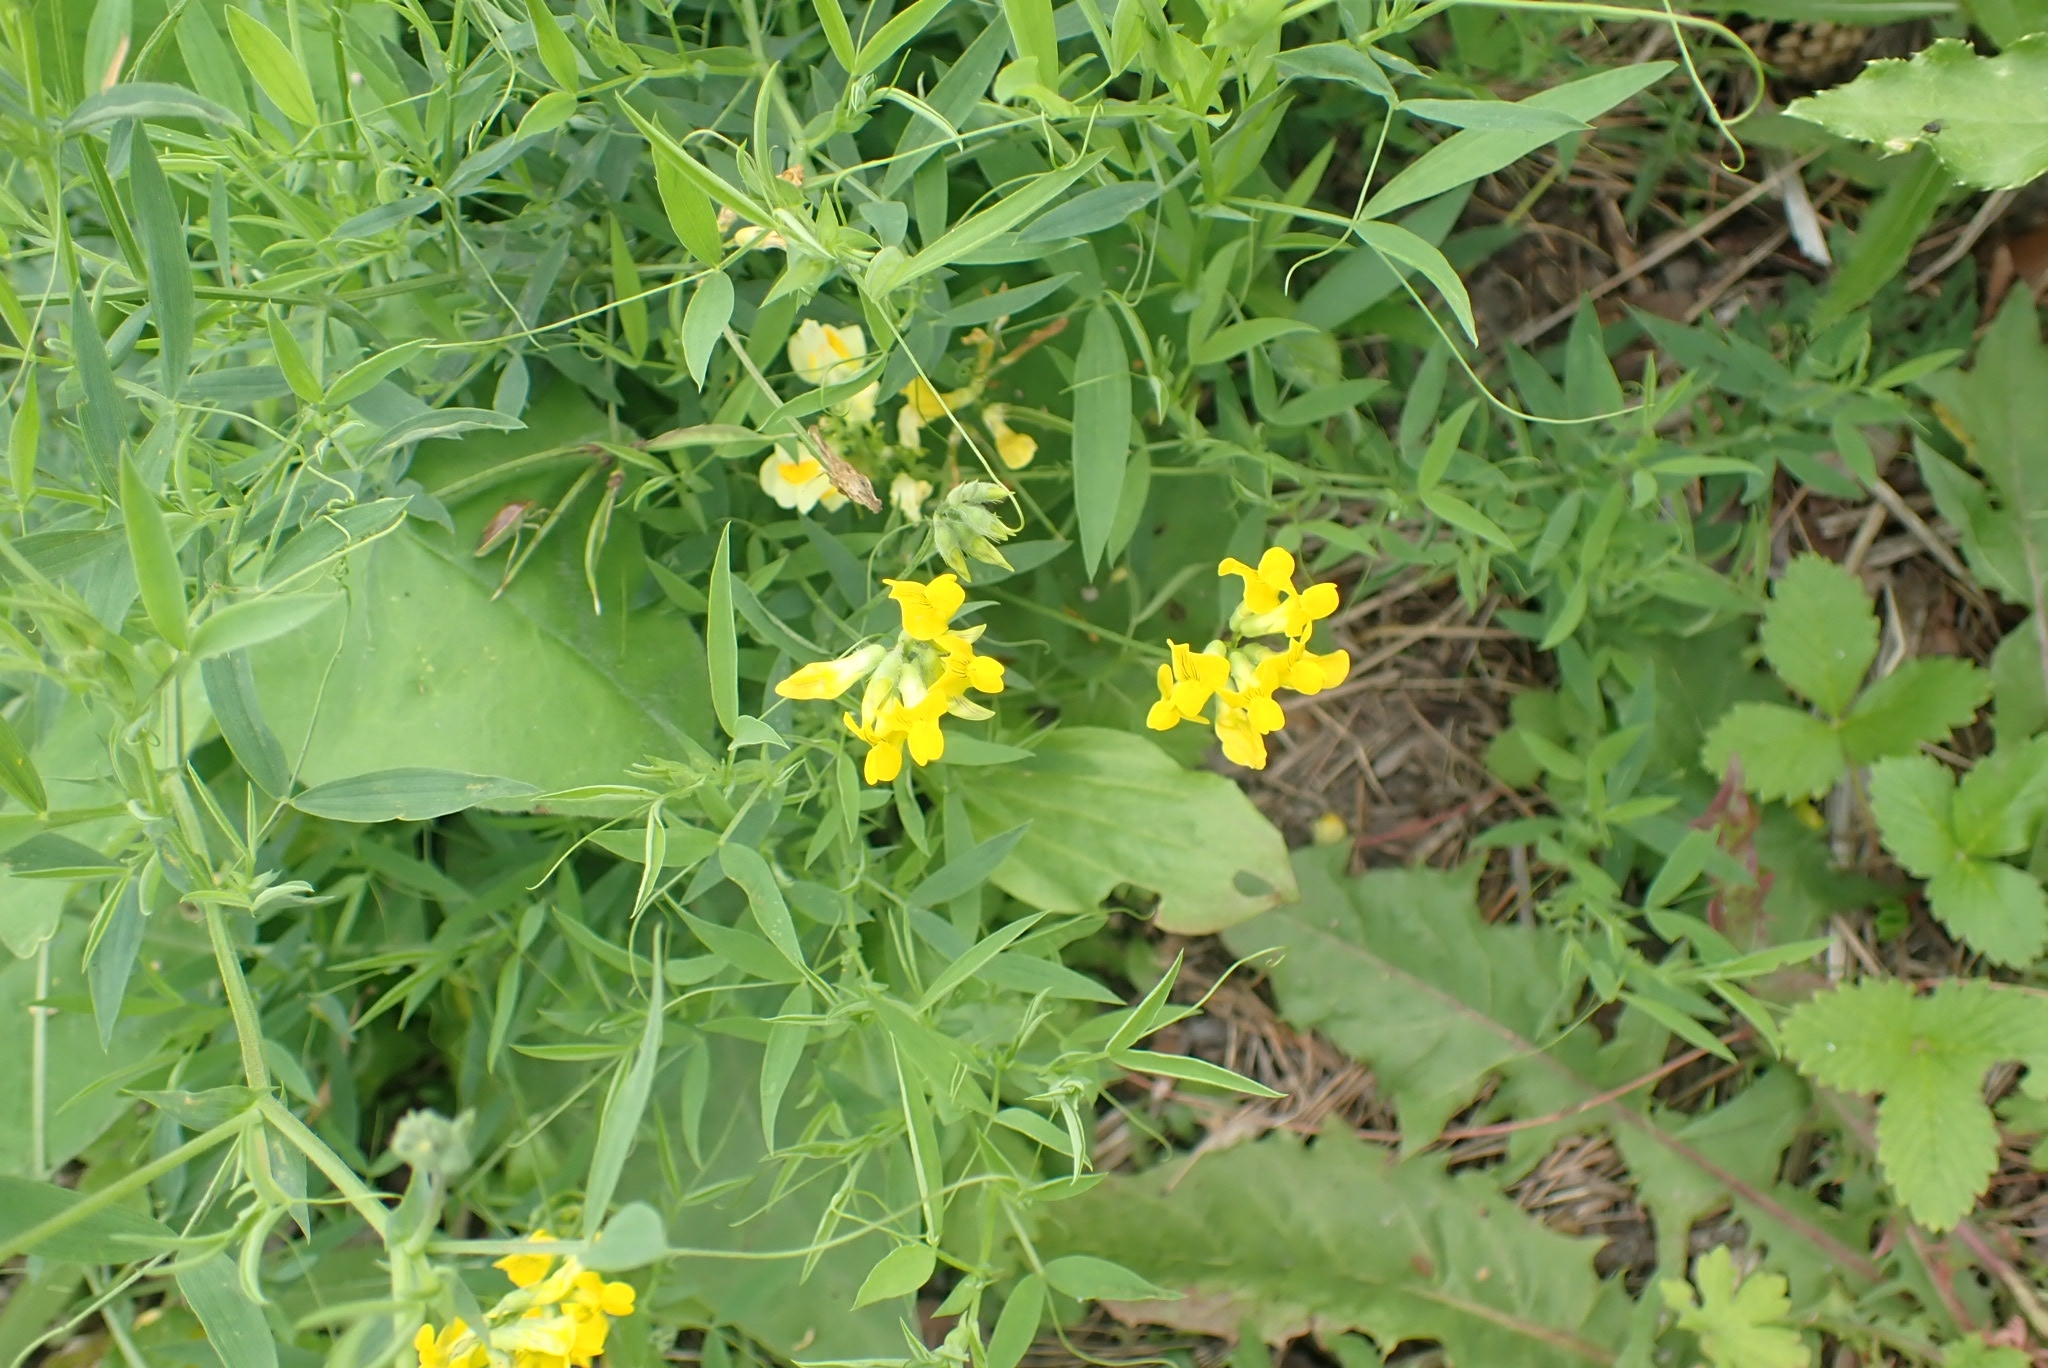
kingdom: Plantae
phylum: Tracheophyta
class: Magnoliopsida
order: Fabales
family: Fabaceae
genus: Lathyrus
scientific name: Lathyrus pratensis
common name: Meadow vetchling
